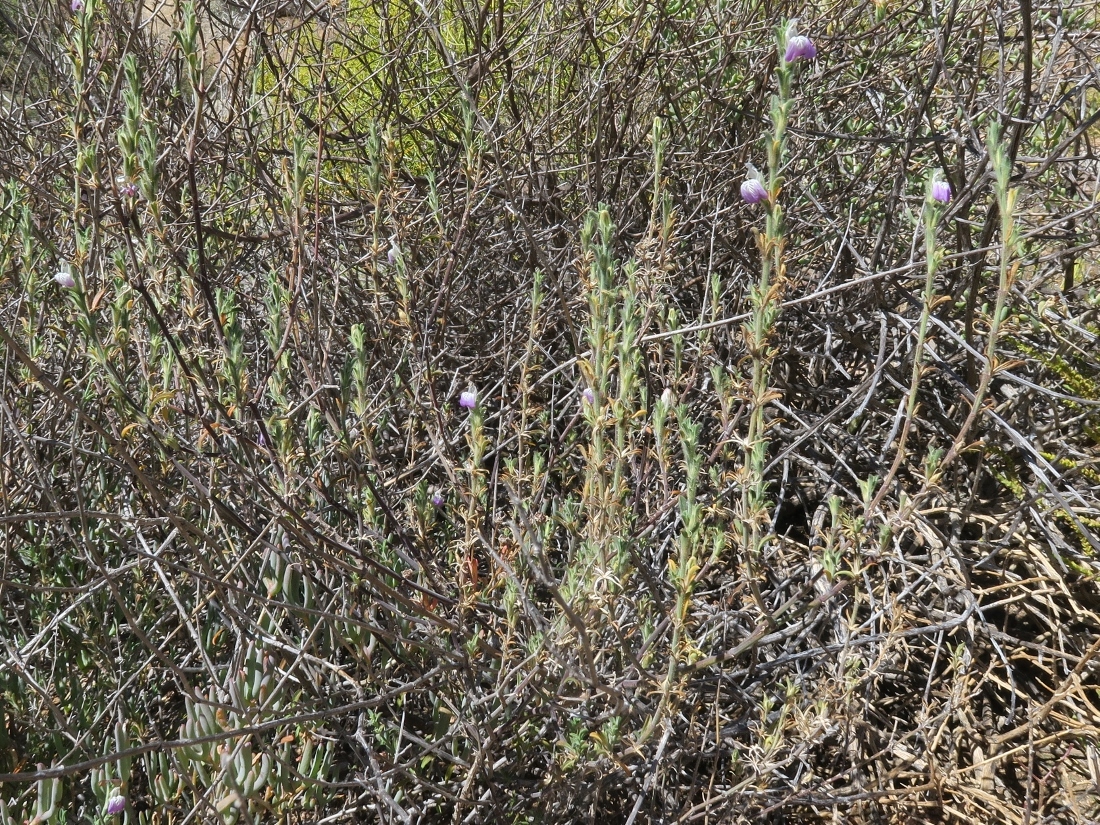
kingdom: Plantae
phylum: Tracheophyta
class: Magnoliopsida
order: Lamiales
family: Acanthaceae
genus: Pogonospermum
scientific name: Pogonospermum
